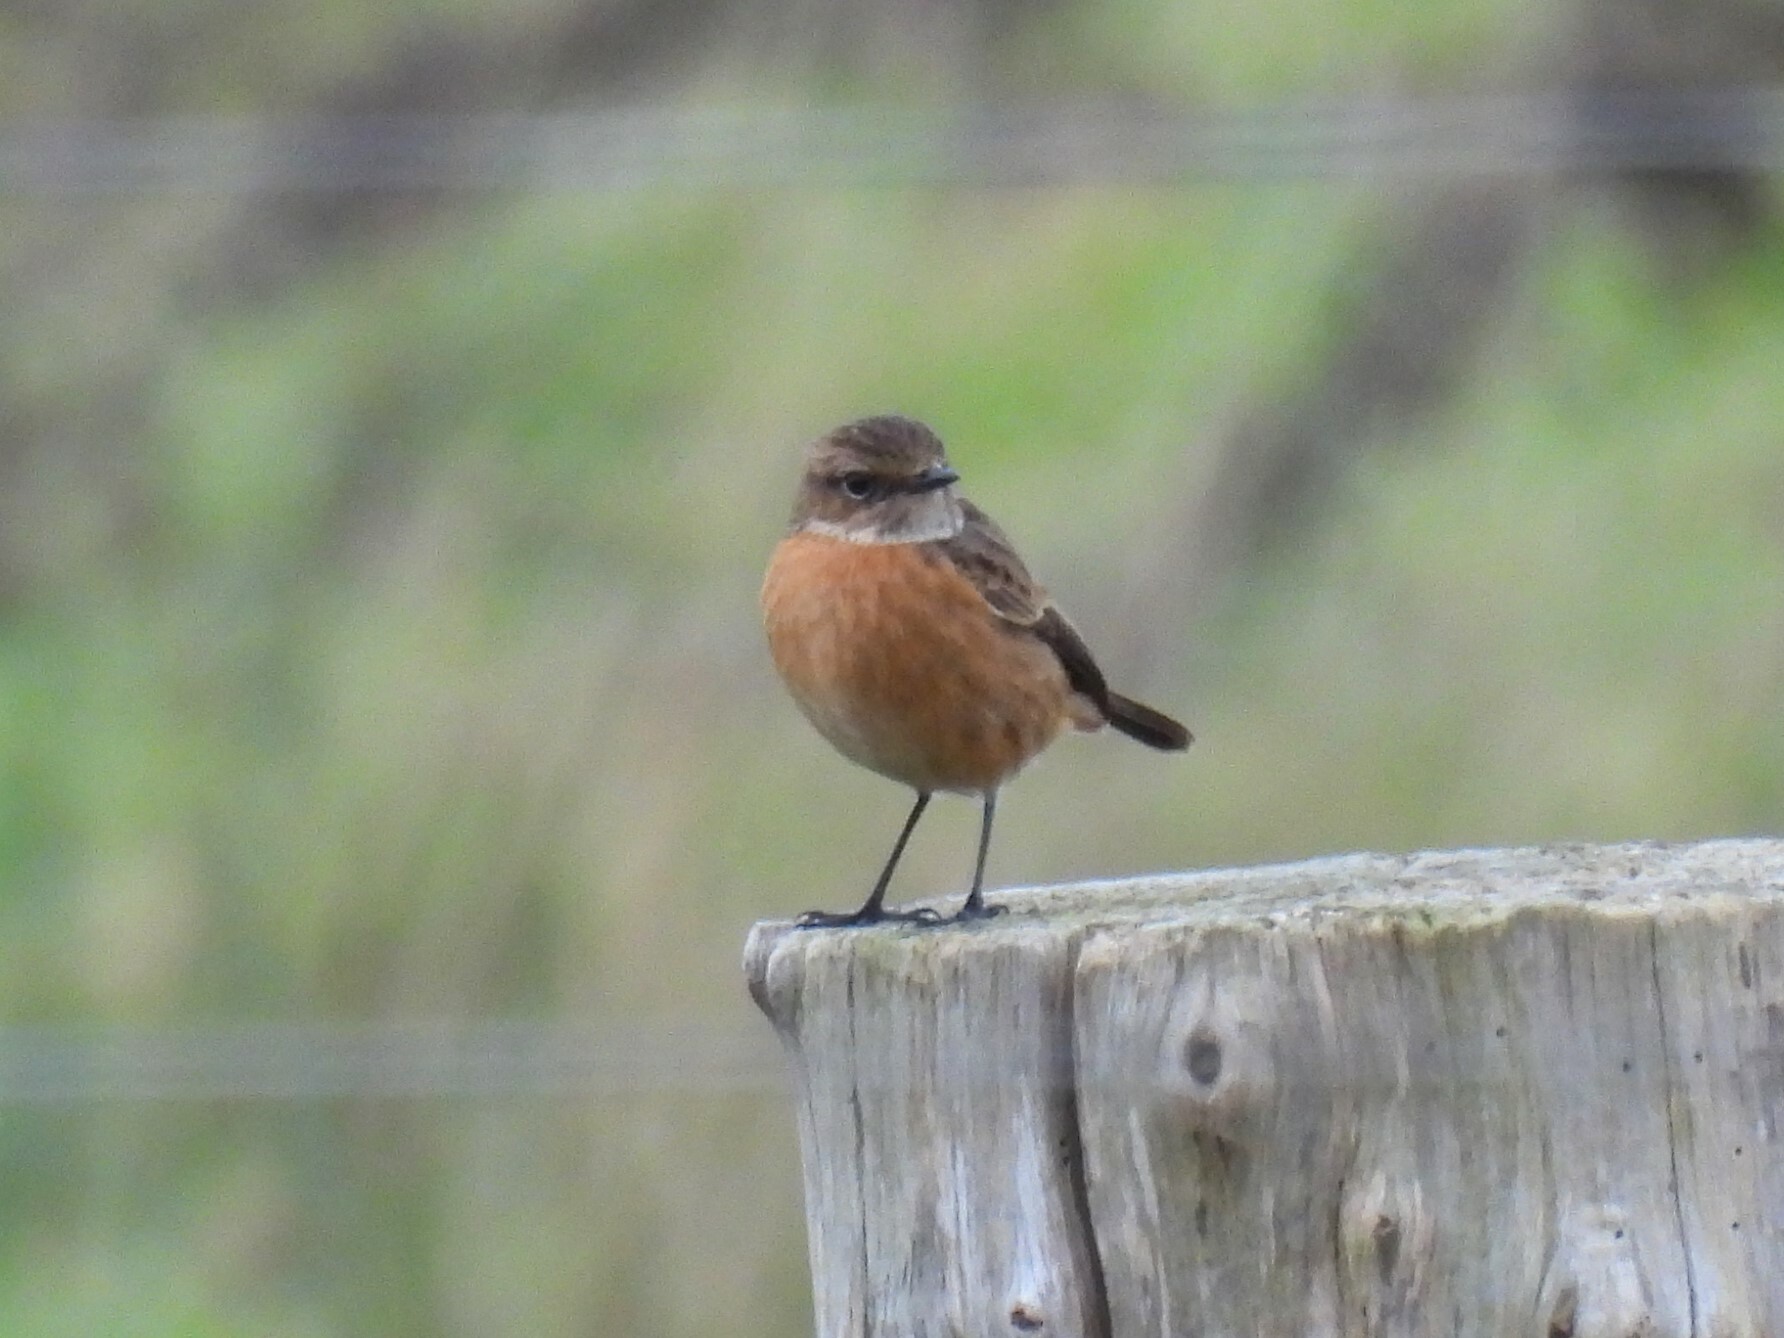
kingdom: Animalia
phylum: Chordata
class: Aves
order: Passeriformes
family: Muscicapidae
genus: Saxicola
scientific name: Saxicola rubicola
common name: European stonechat
